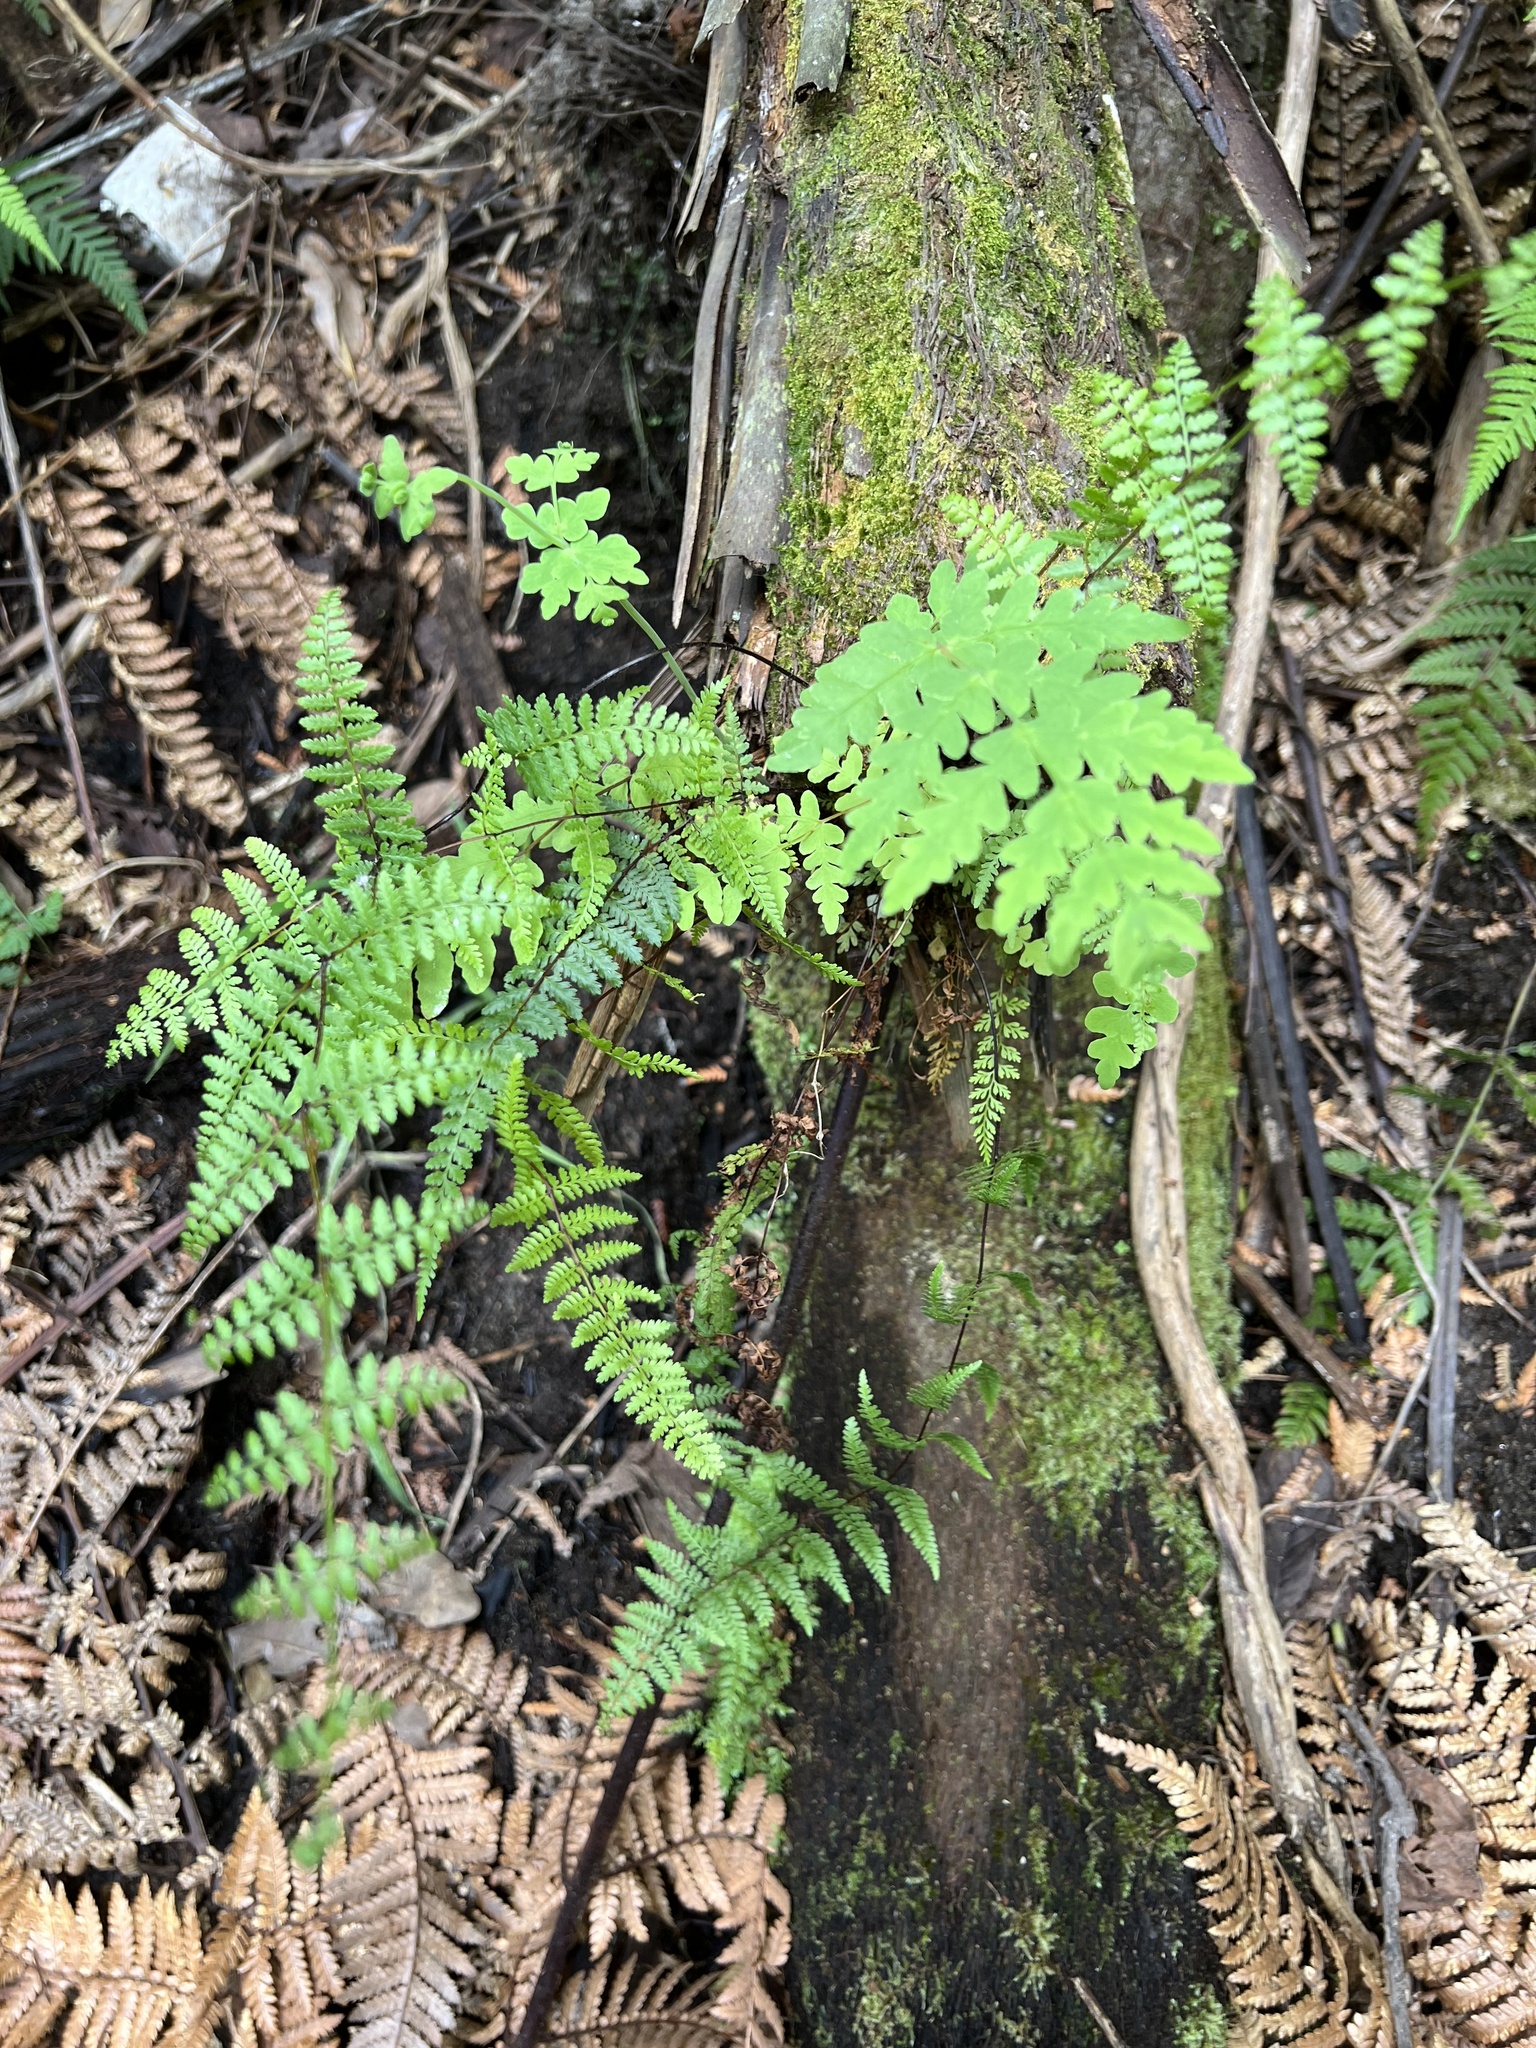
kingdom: Plantae
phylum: Tracheophyta
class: Polypodiopsida
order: Polypodiales
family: Dennstaedtiaceae
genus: Hiya
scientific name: Hiya distans
